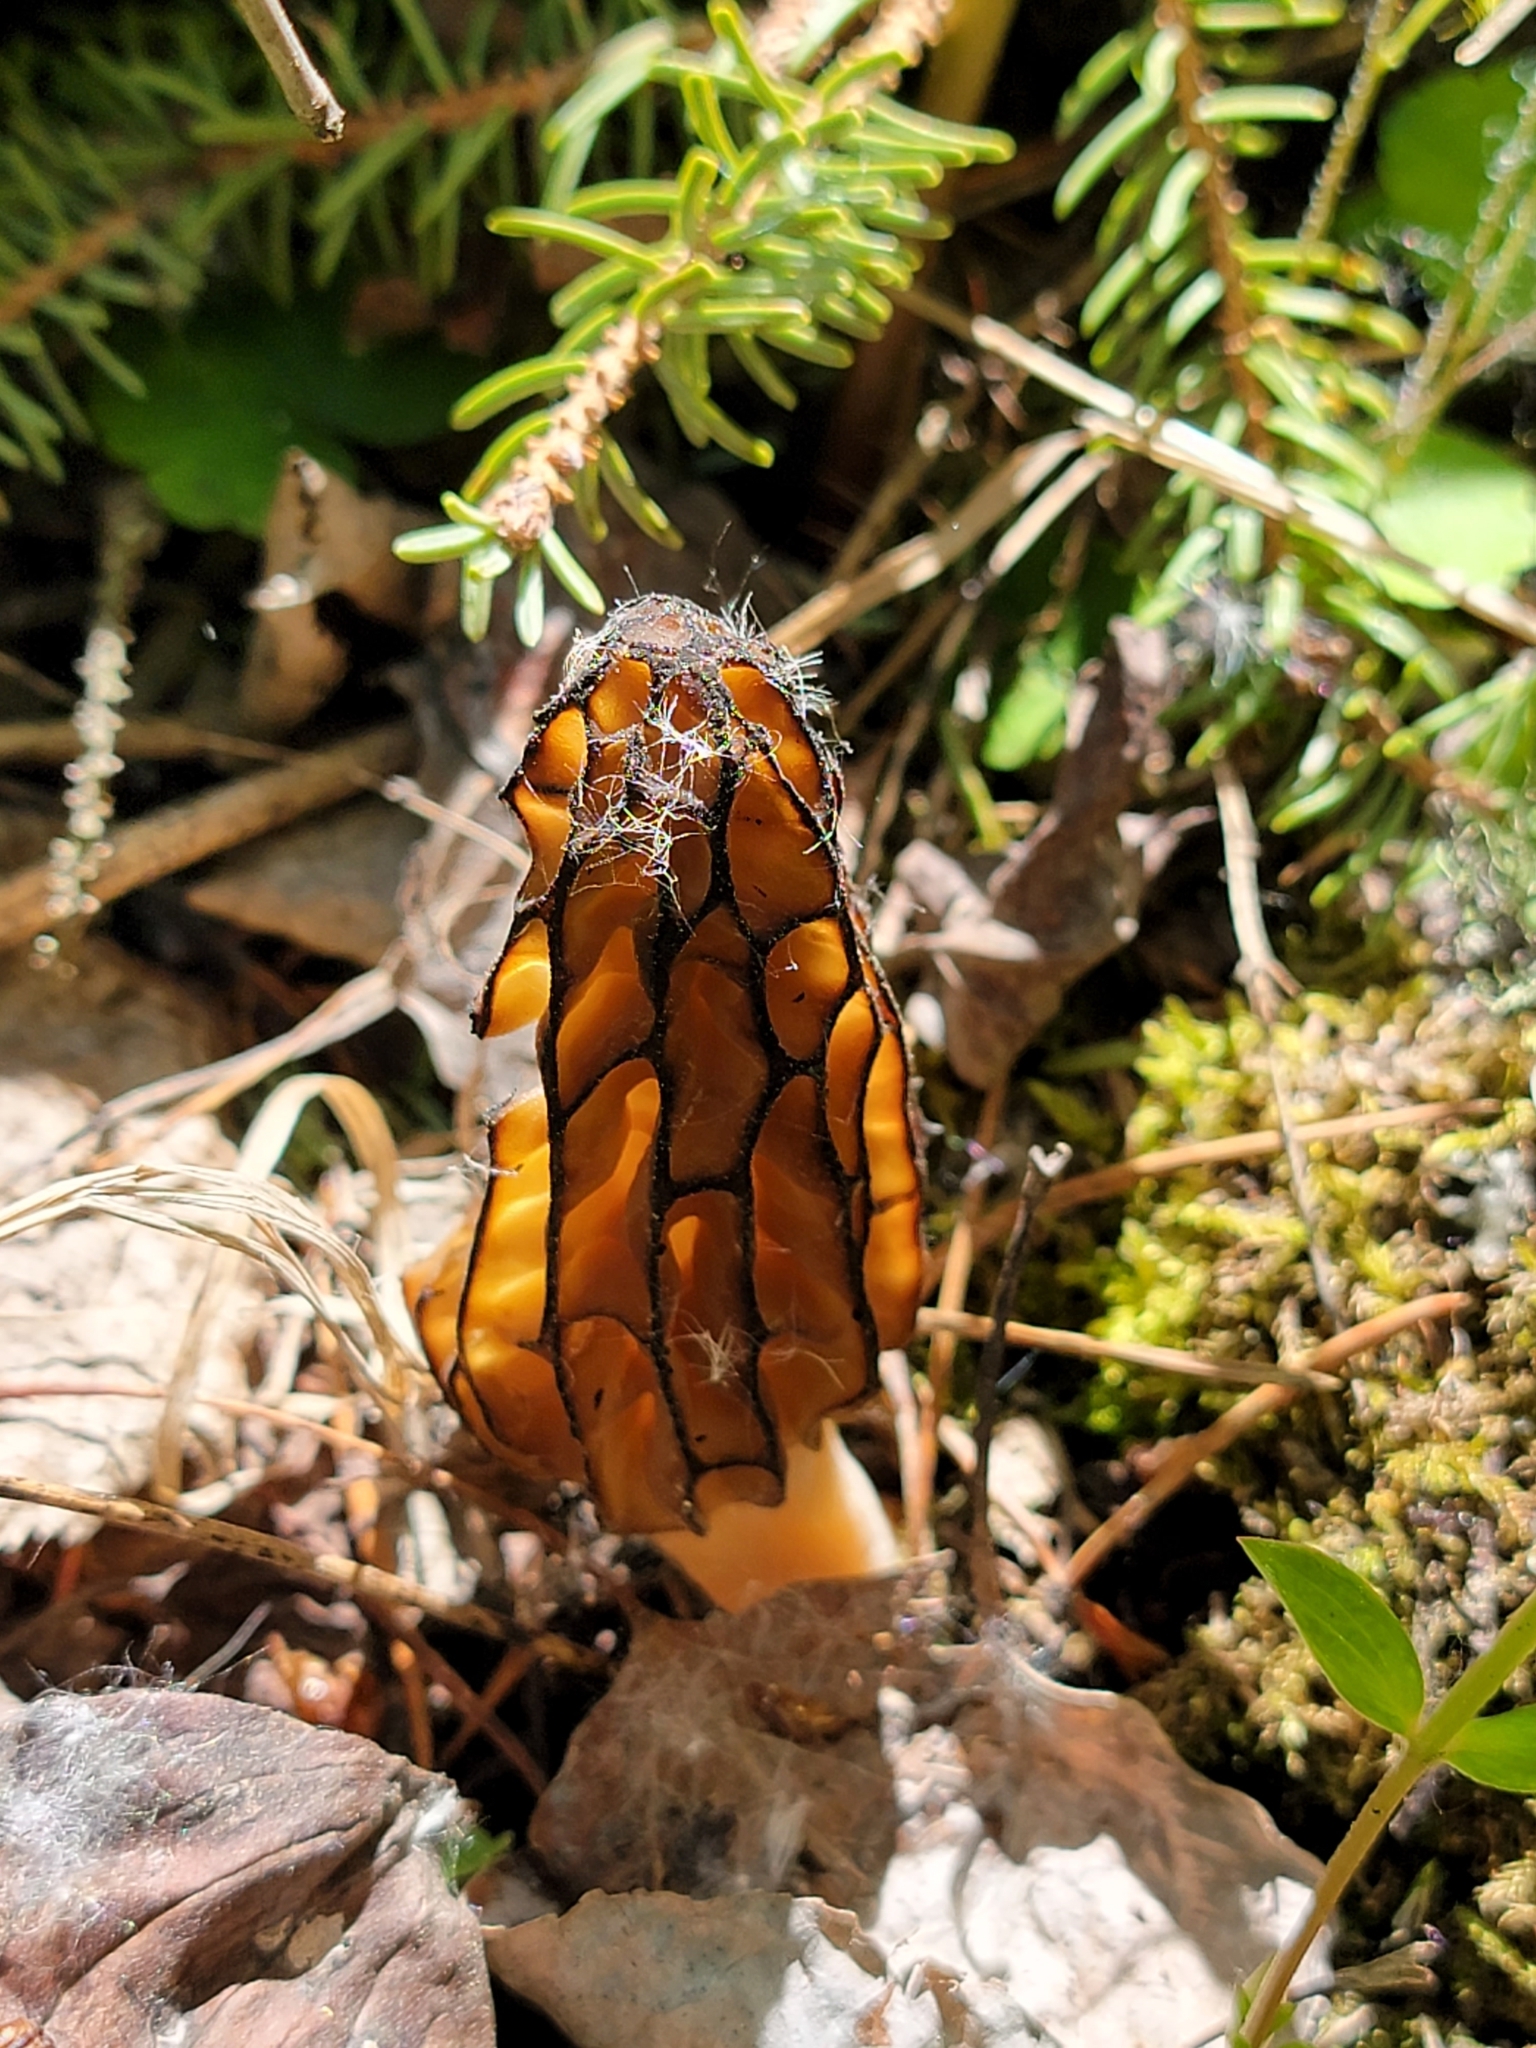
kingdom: Fungi
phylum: Ascomycota
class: Pezizomycetes
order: Pezizales
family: Morchellaceae
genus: Morchella
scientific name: Morchella angusticeps
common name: Black morel
